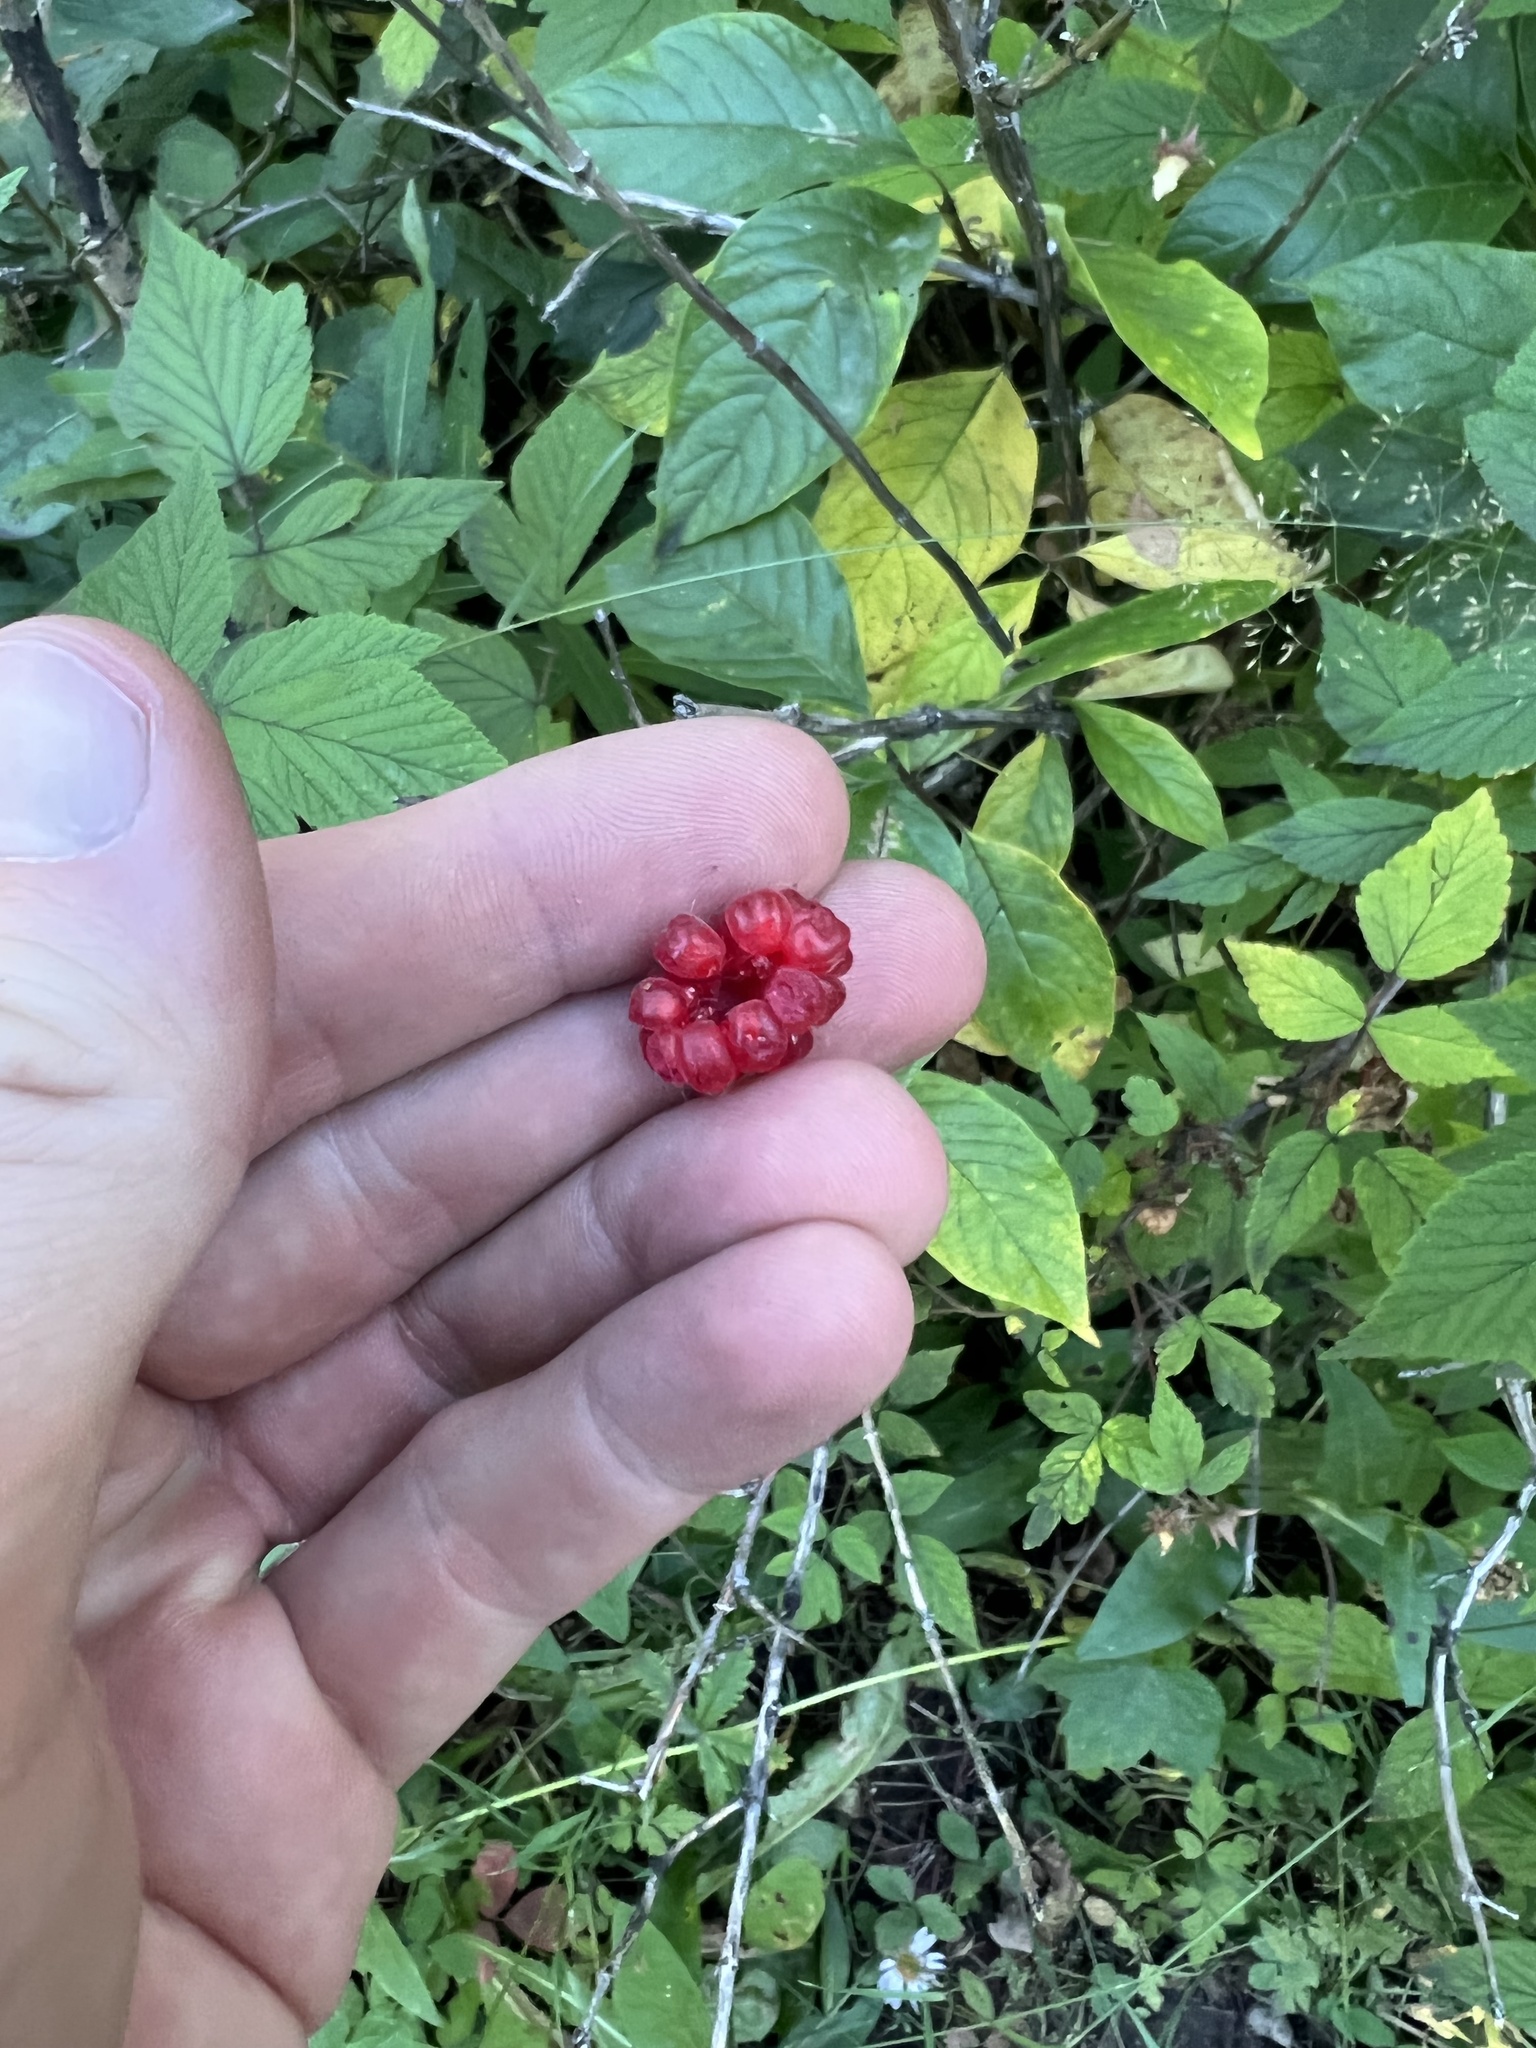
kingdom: Plantae
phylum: Tracheophyta
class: Magnoliopsida
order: Rosales
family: Rosaceae
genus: Rubus
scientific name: Rubus parviflorus
